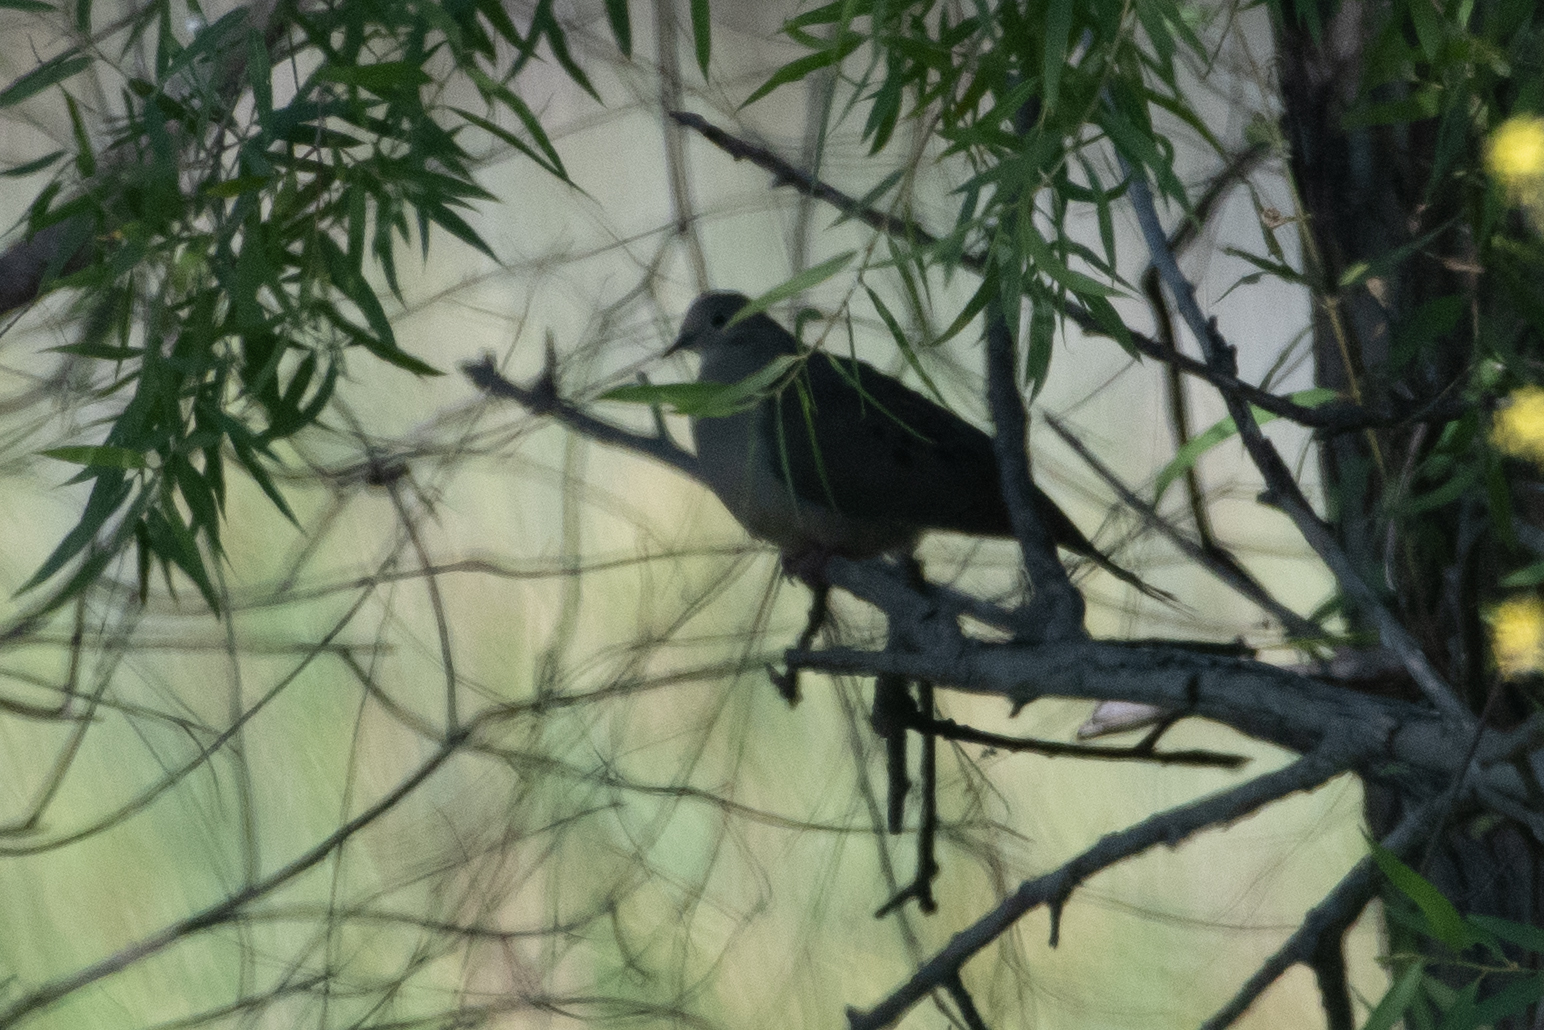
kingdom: Animalia
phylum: Chordata
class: Aves
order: Columbiformes
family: Columbidae
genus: Zenaida
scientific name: Zenaida macroura
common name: Mourning dove
